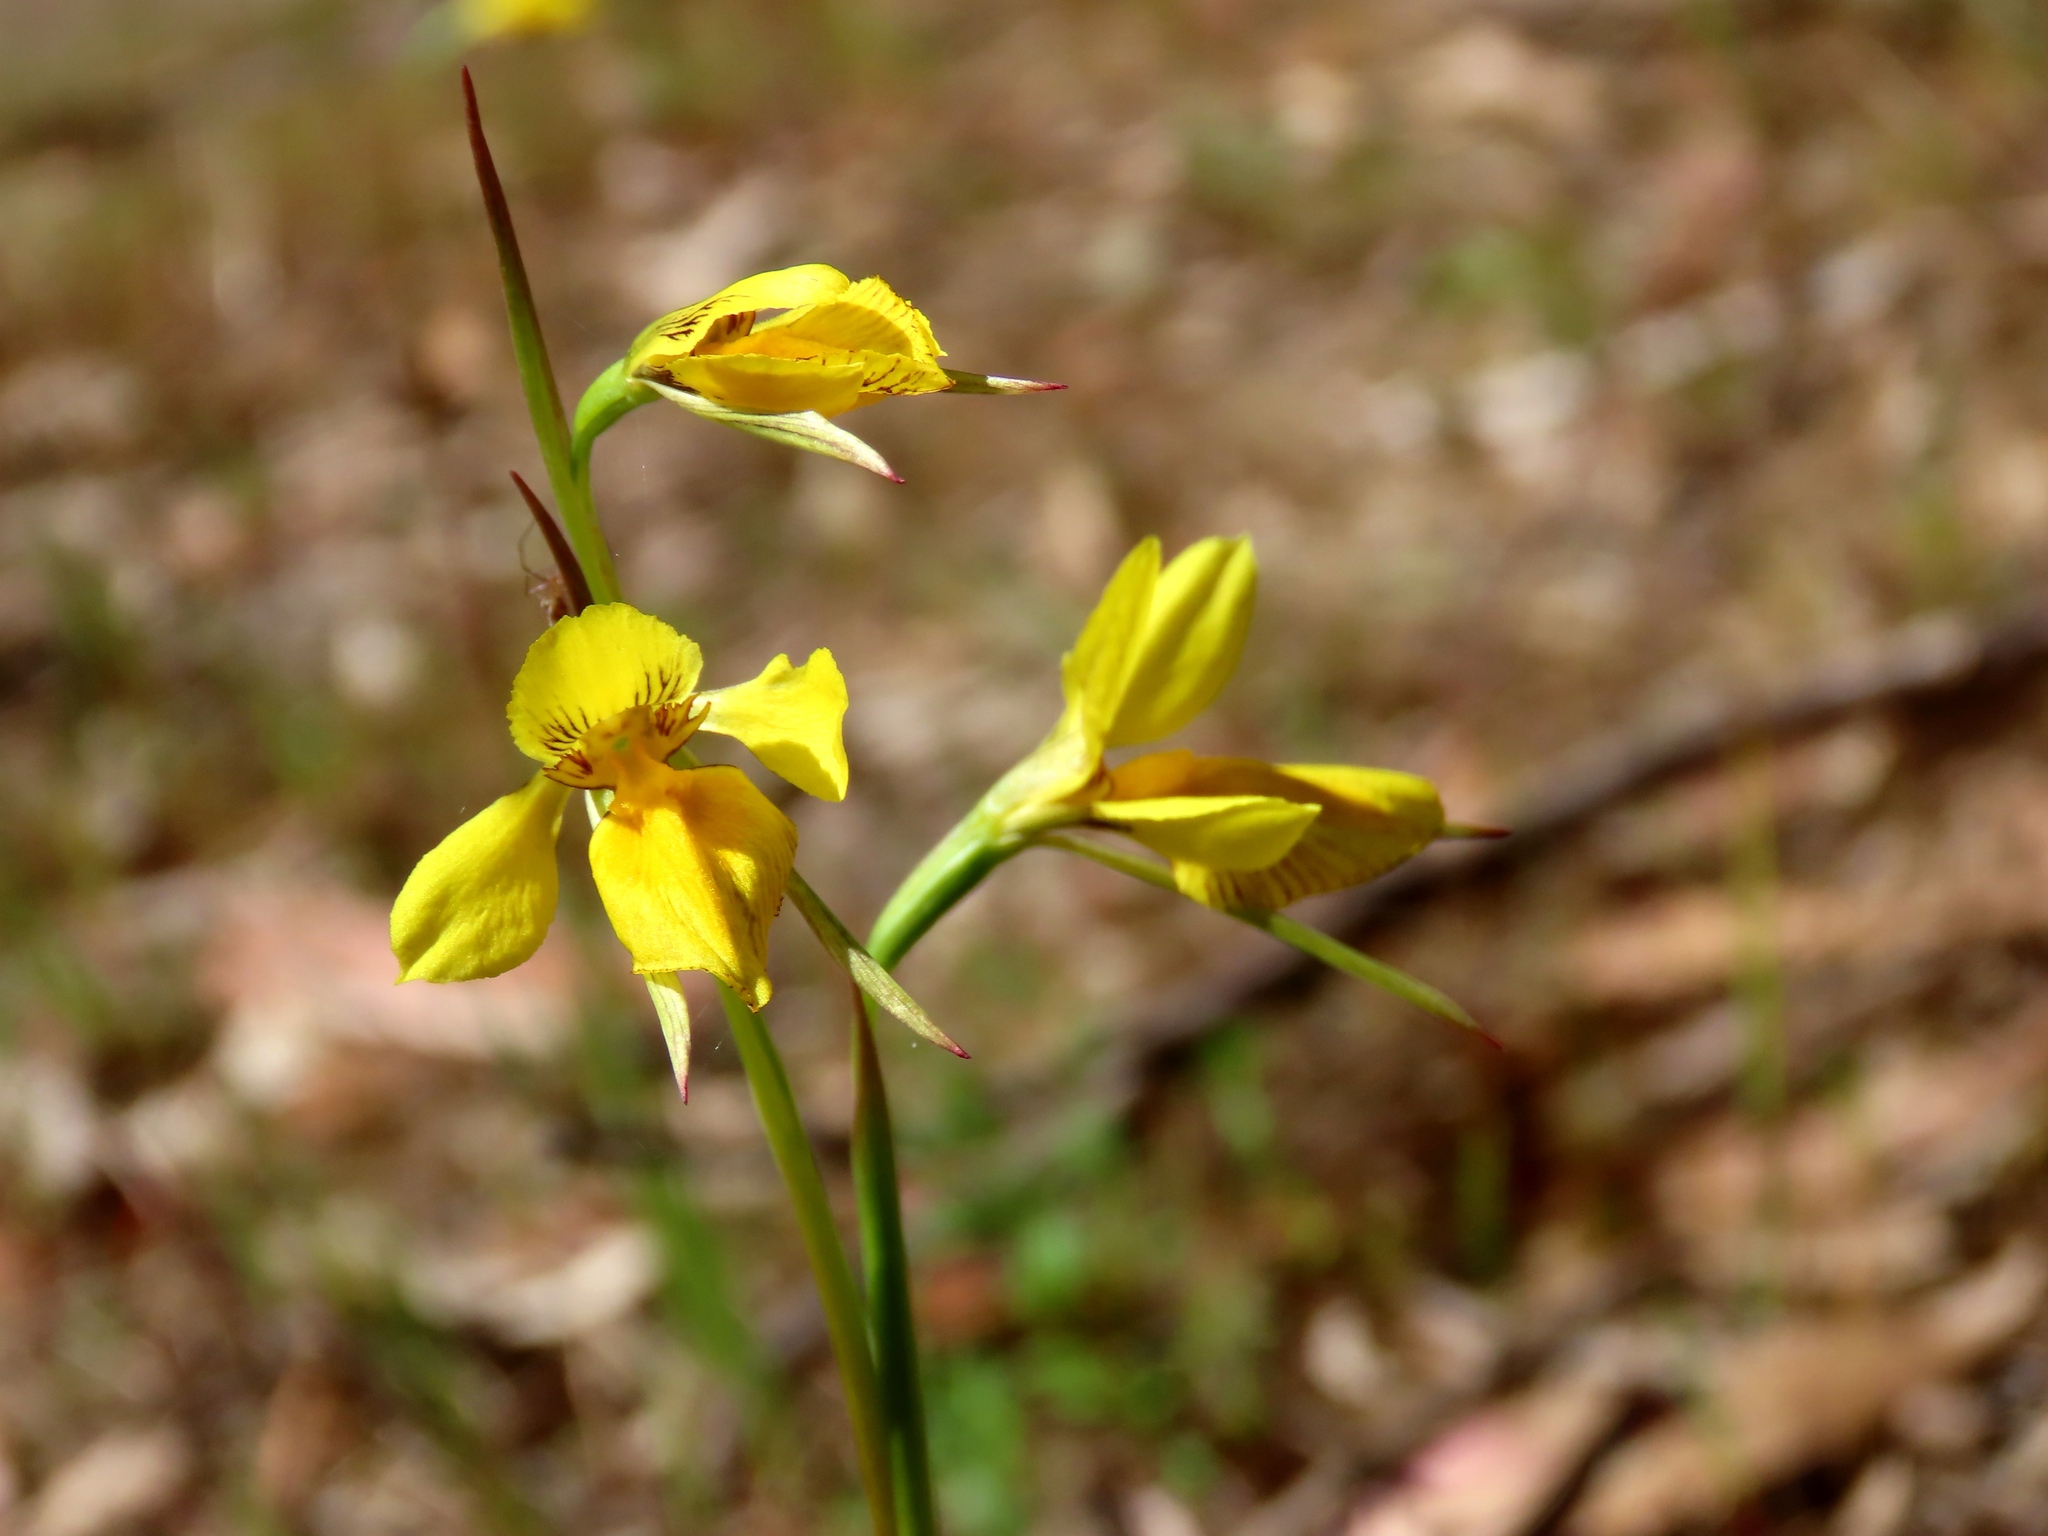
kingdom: Plantae
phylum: Tracheophyta
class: Liliopsida
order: Asparagales
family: Orchidaceae
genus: Diuris
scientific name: Diuris chryseopsis
